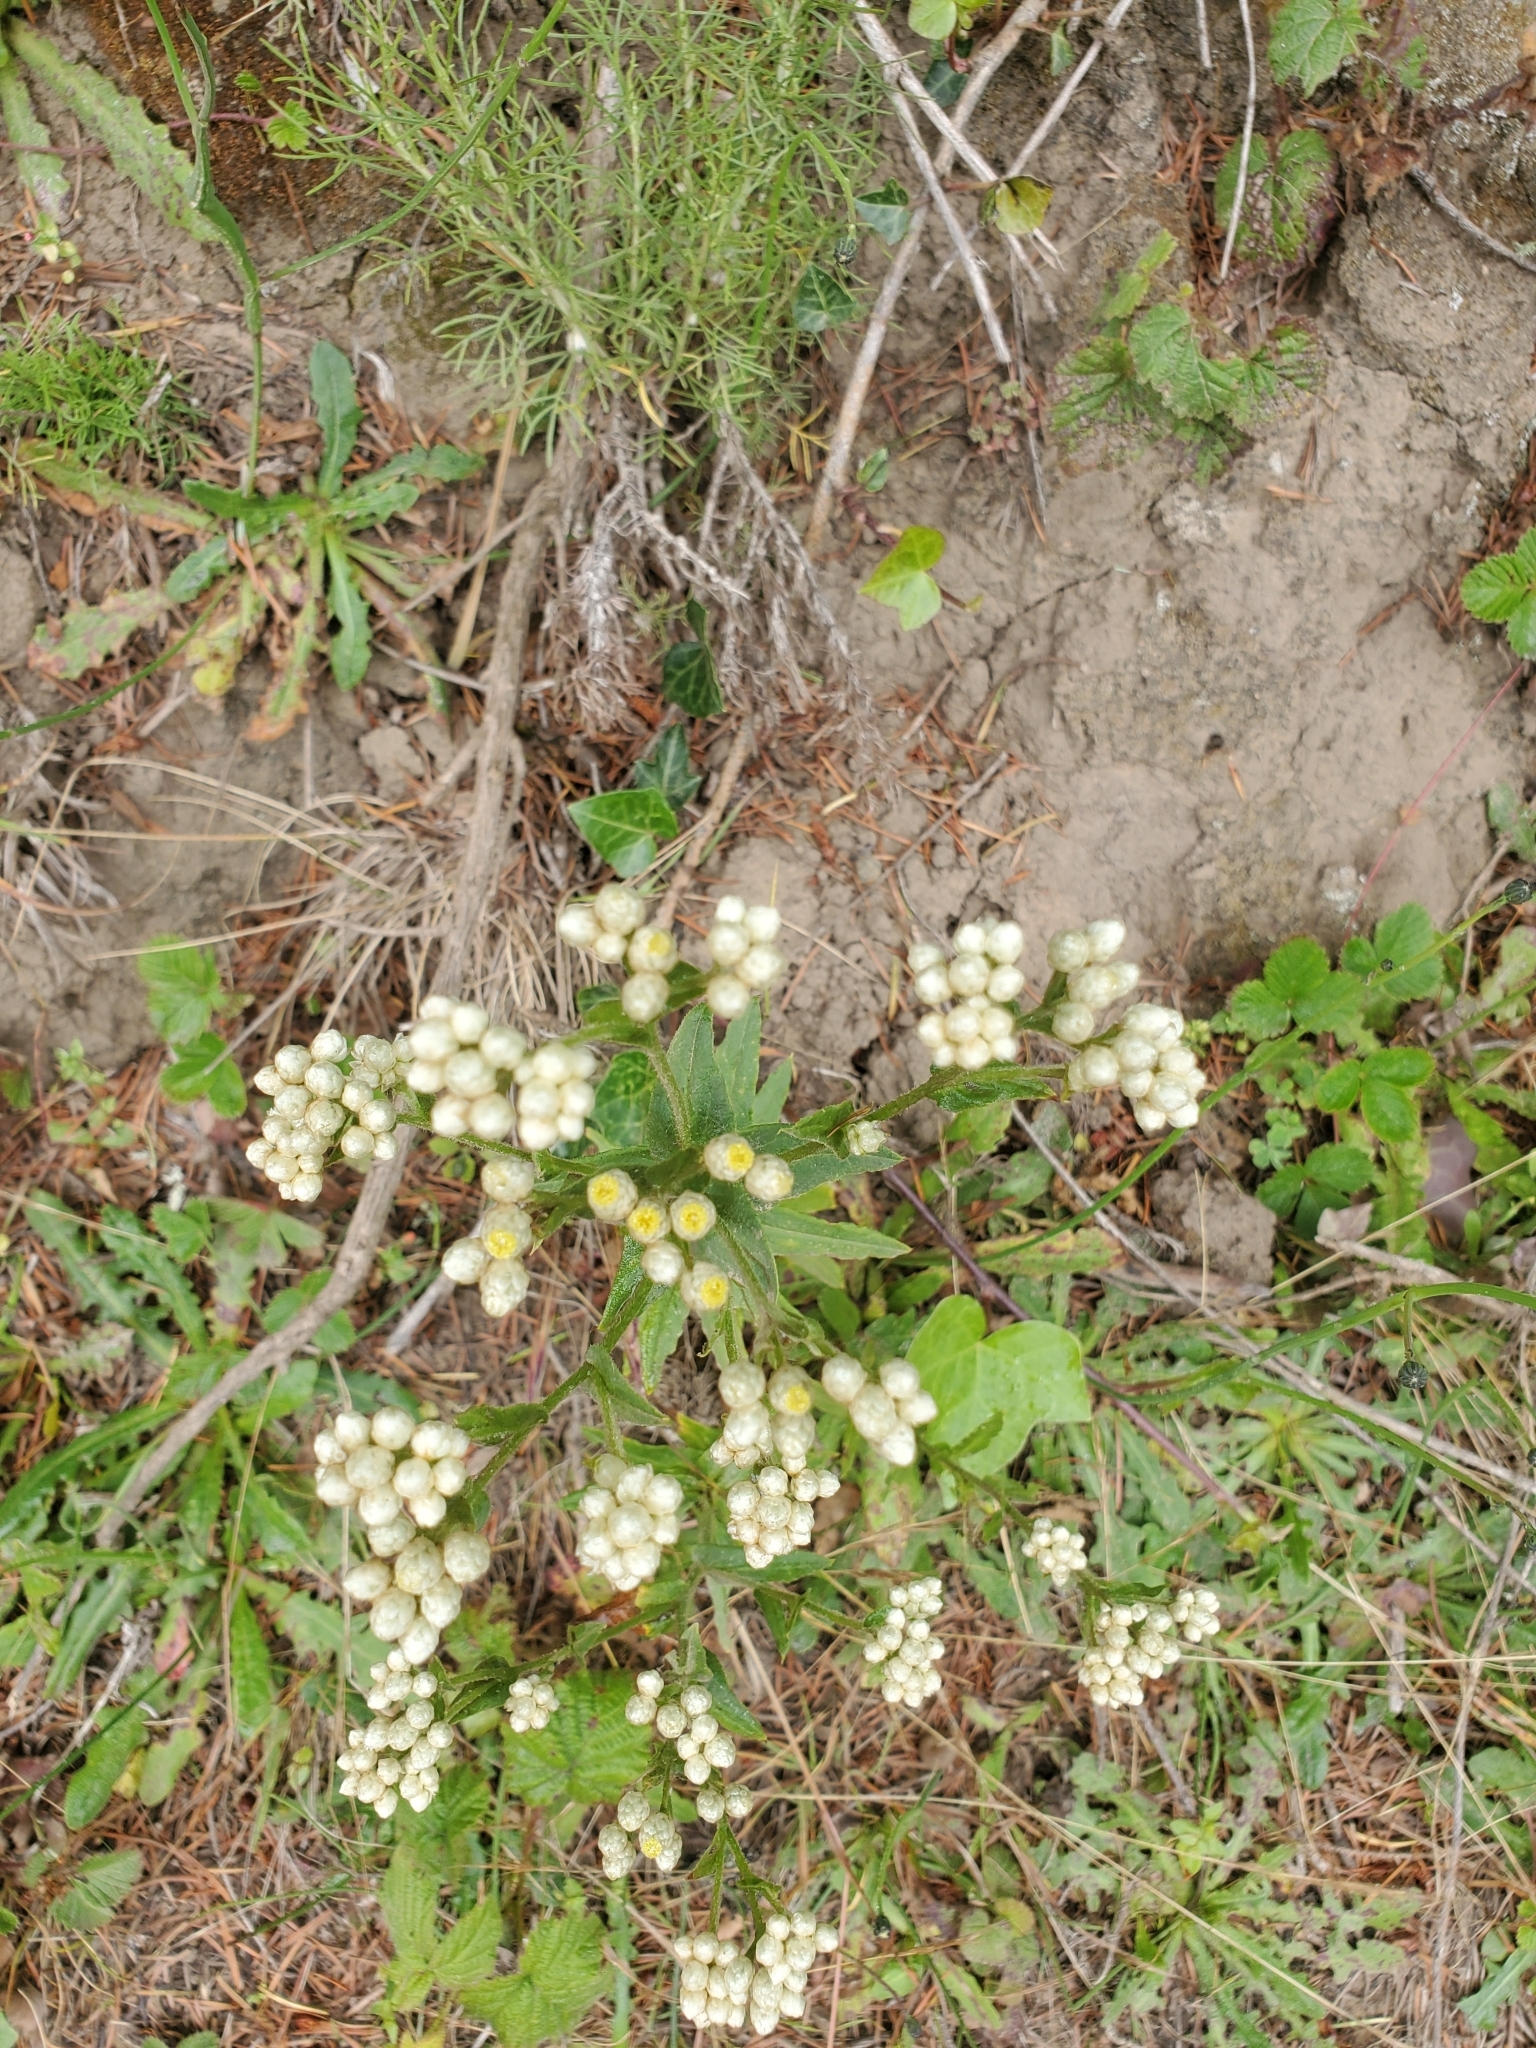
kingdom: Plantae
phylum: Tracheophyta
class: Magnoliopsida
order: Asterales
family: Asteraceae
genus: Pseudognaphalium
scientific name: Pseudognaphalium californicum
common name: California rabbit-tobacco
